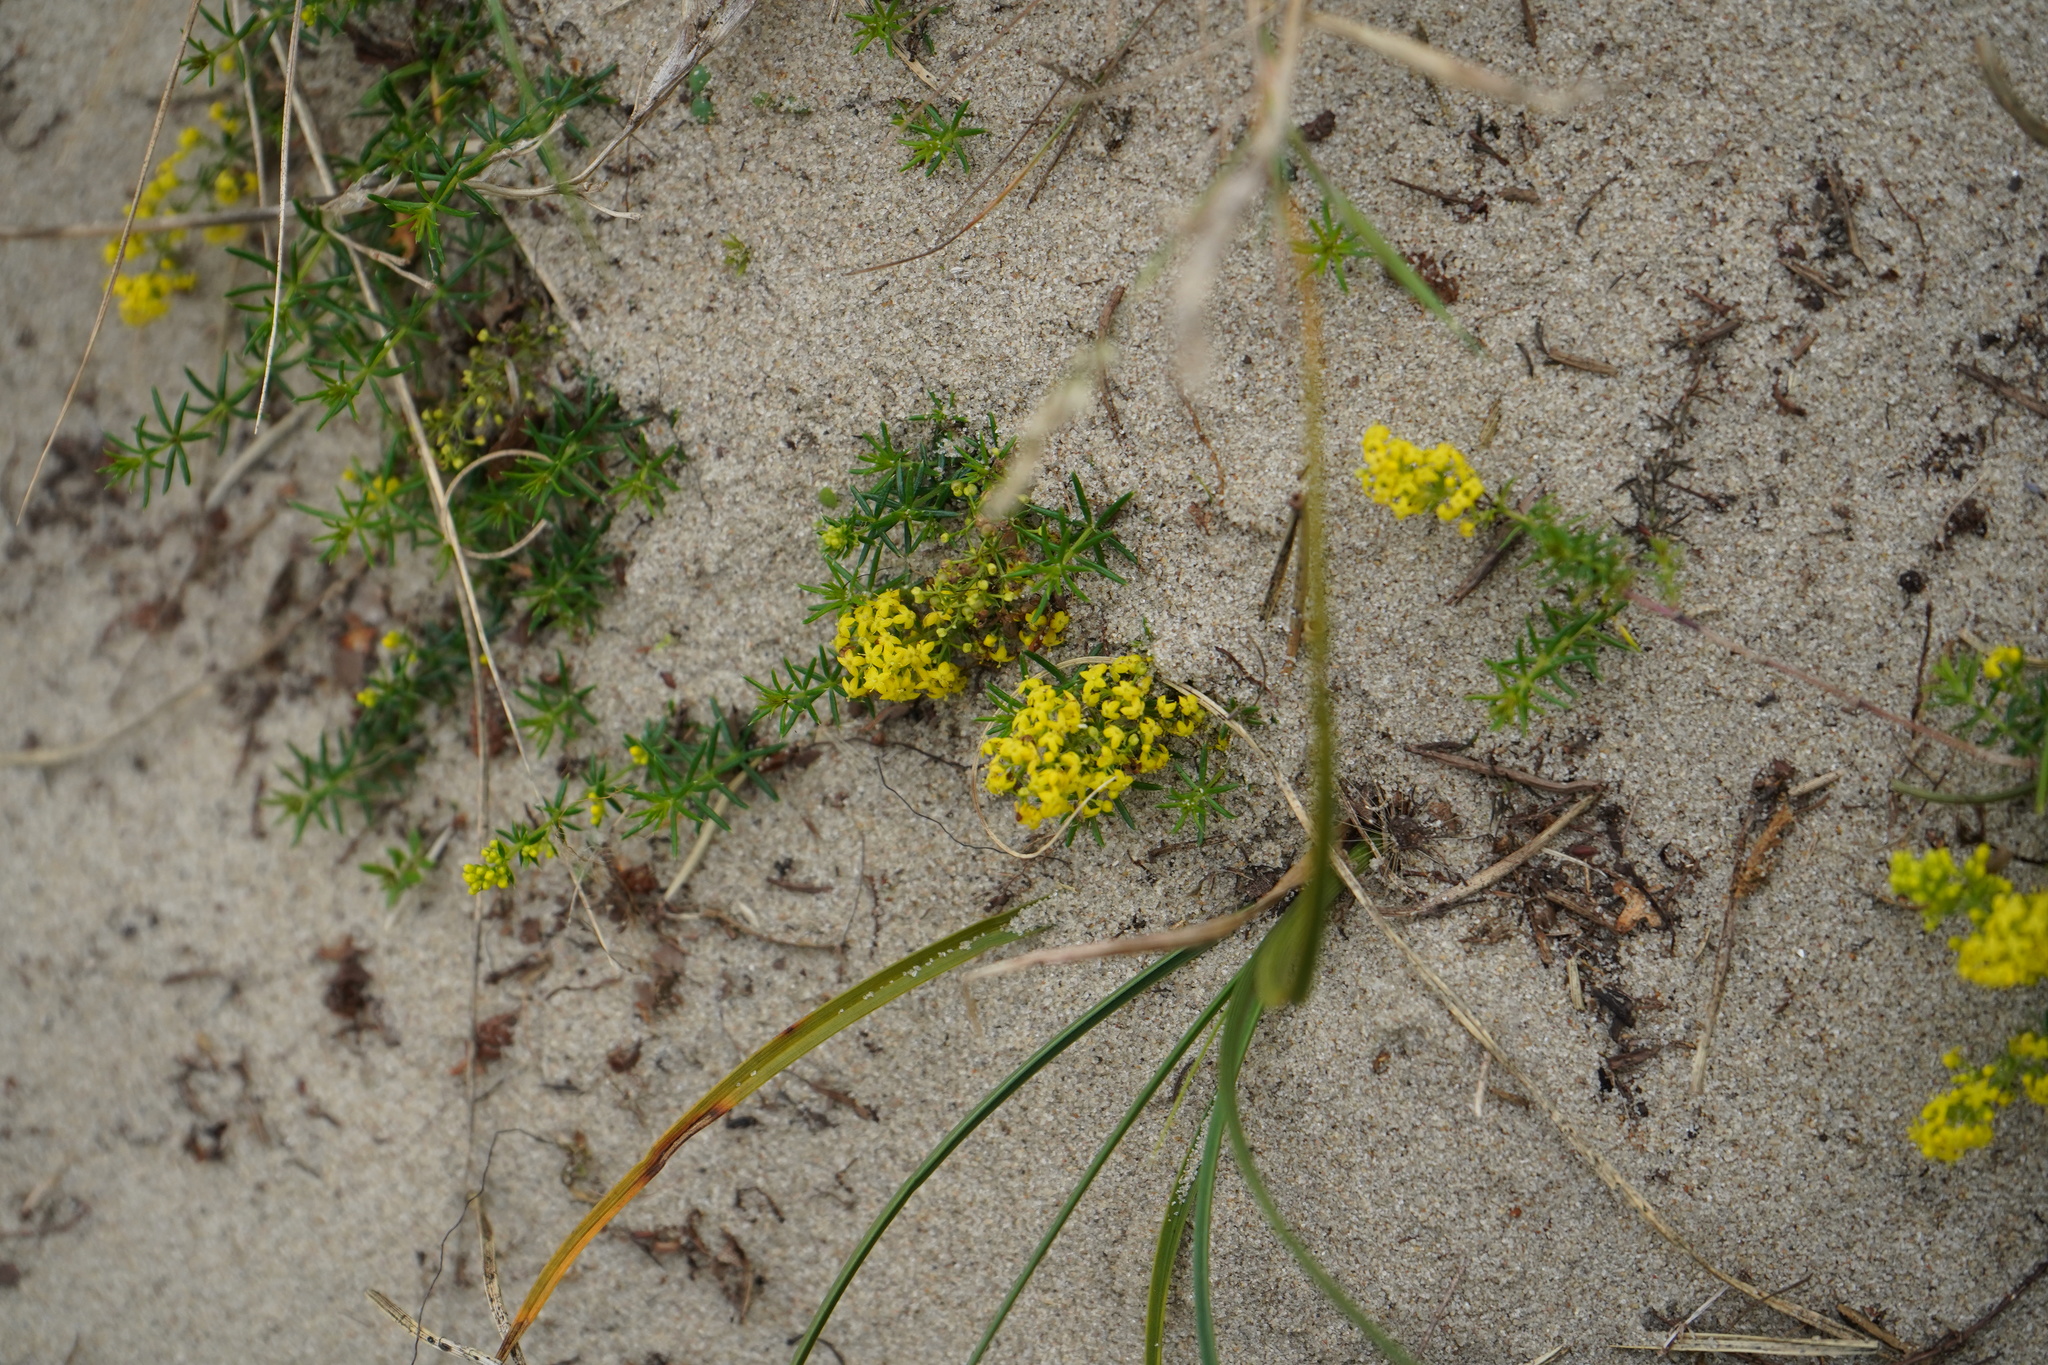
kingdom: Plantae
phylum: Tracheophyta
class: Magnoliopsida
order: Gentianales
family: Rubiaceae
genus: Galium
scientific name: Galium verum
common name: Lady's bedstraw
